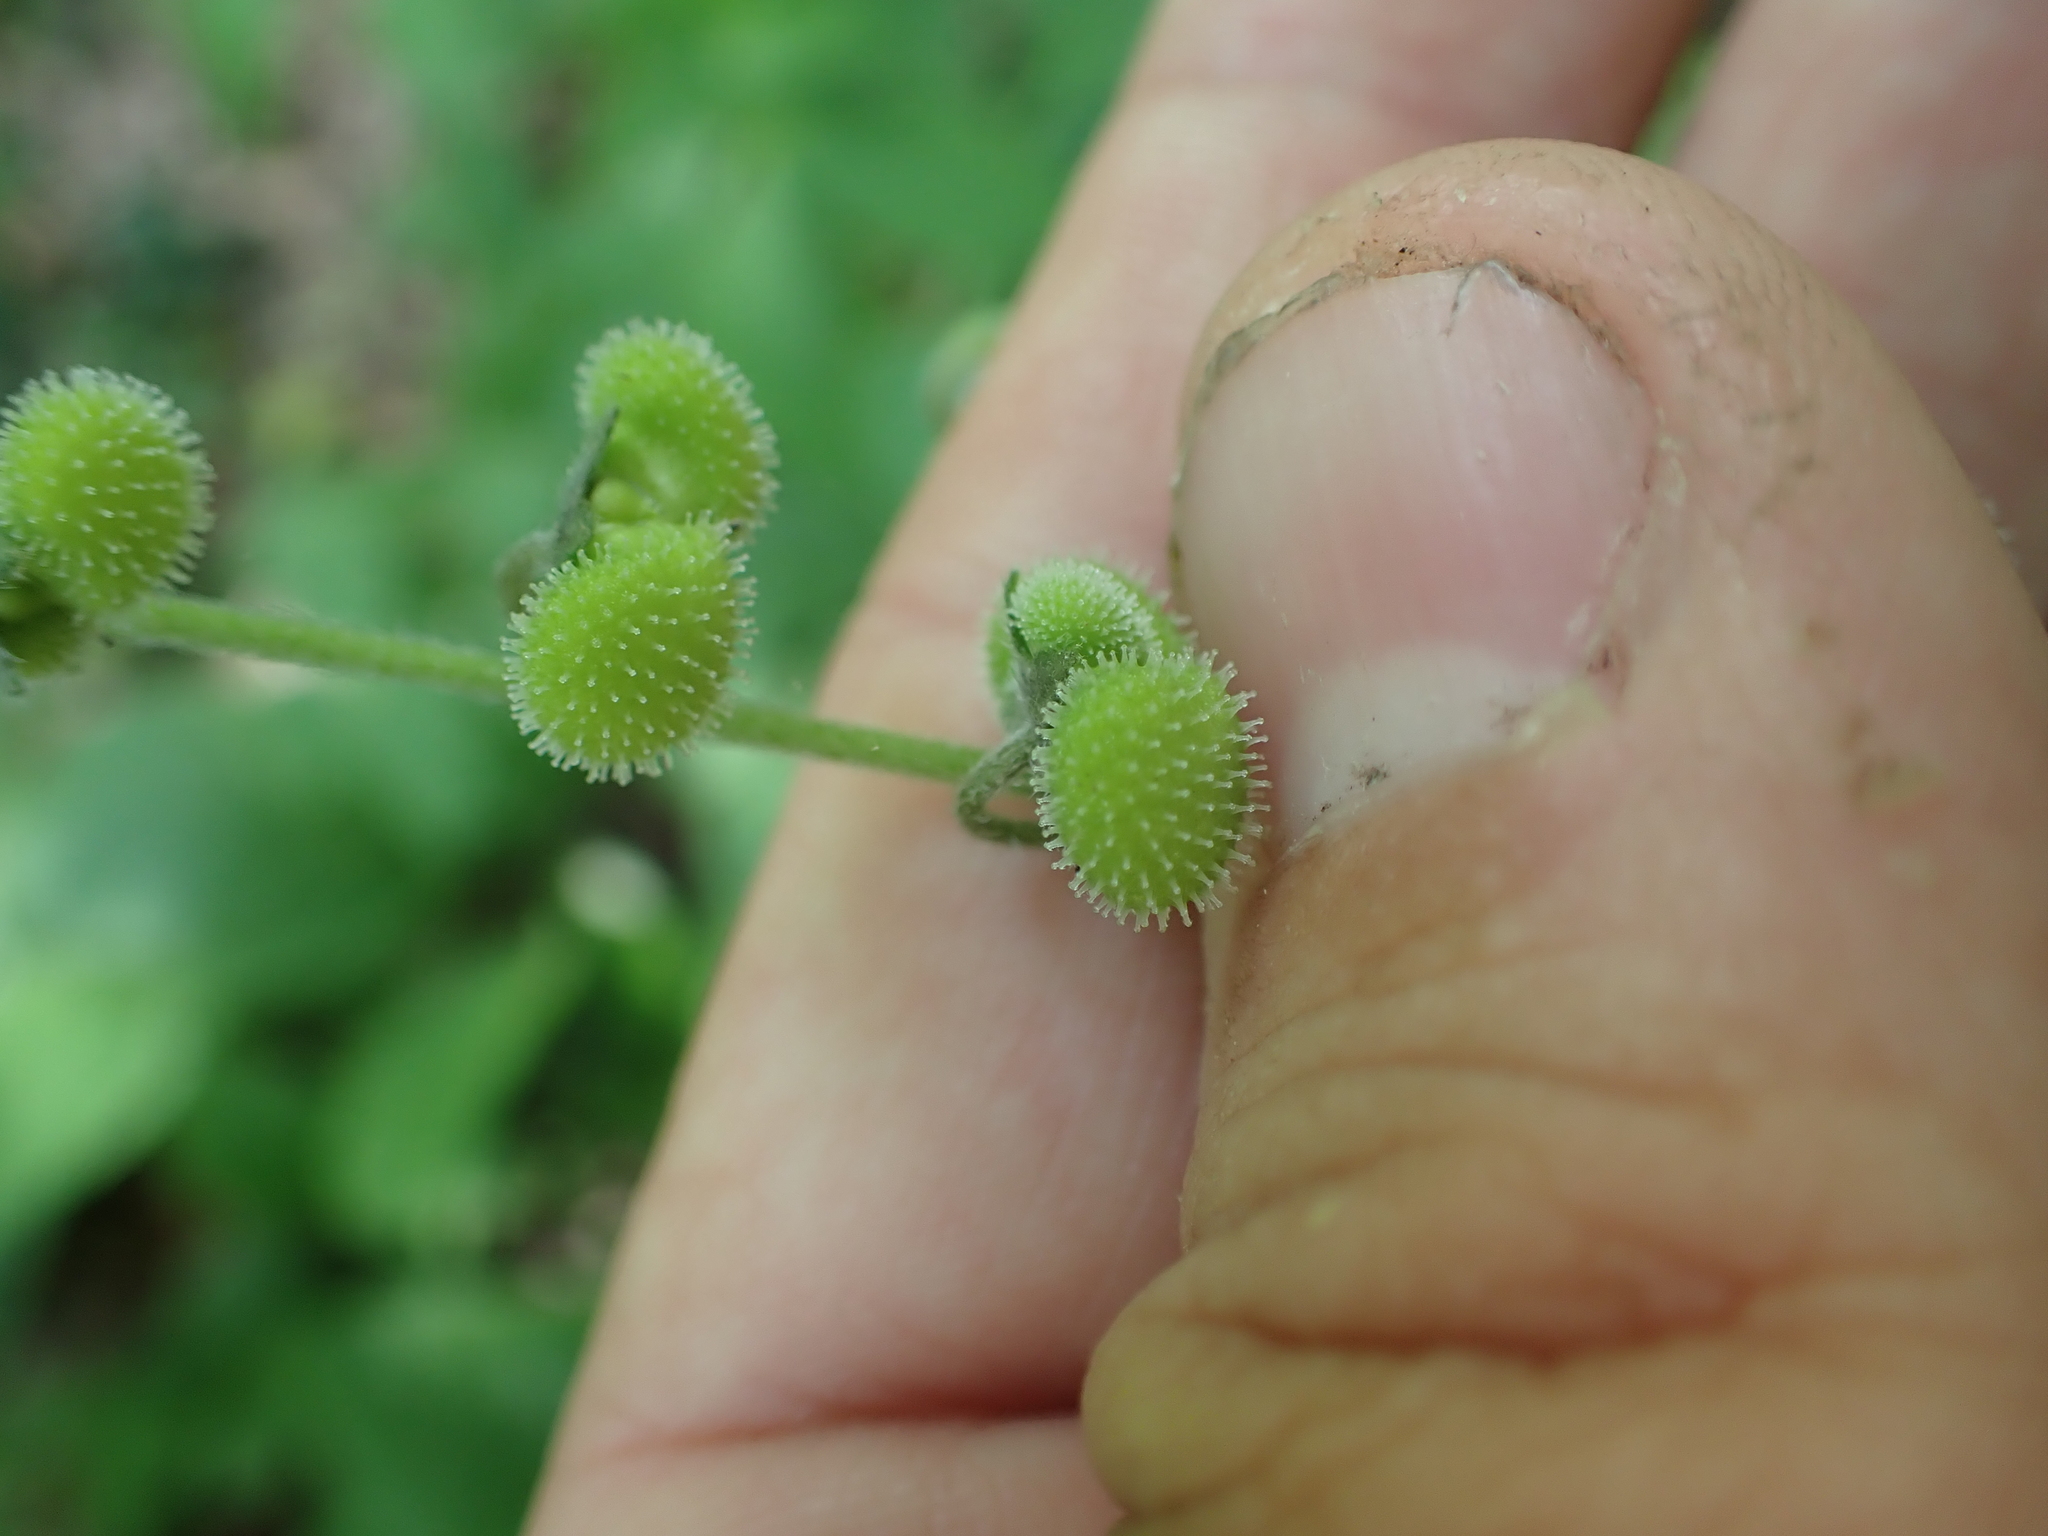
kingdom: Plantae
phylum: Tracheophyta
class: Magnoliopsida
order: Boraginales
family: Boraginaceae
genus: Andersonglossum
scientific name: Andersonglossum virginianum
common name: Wild comfrey
